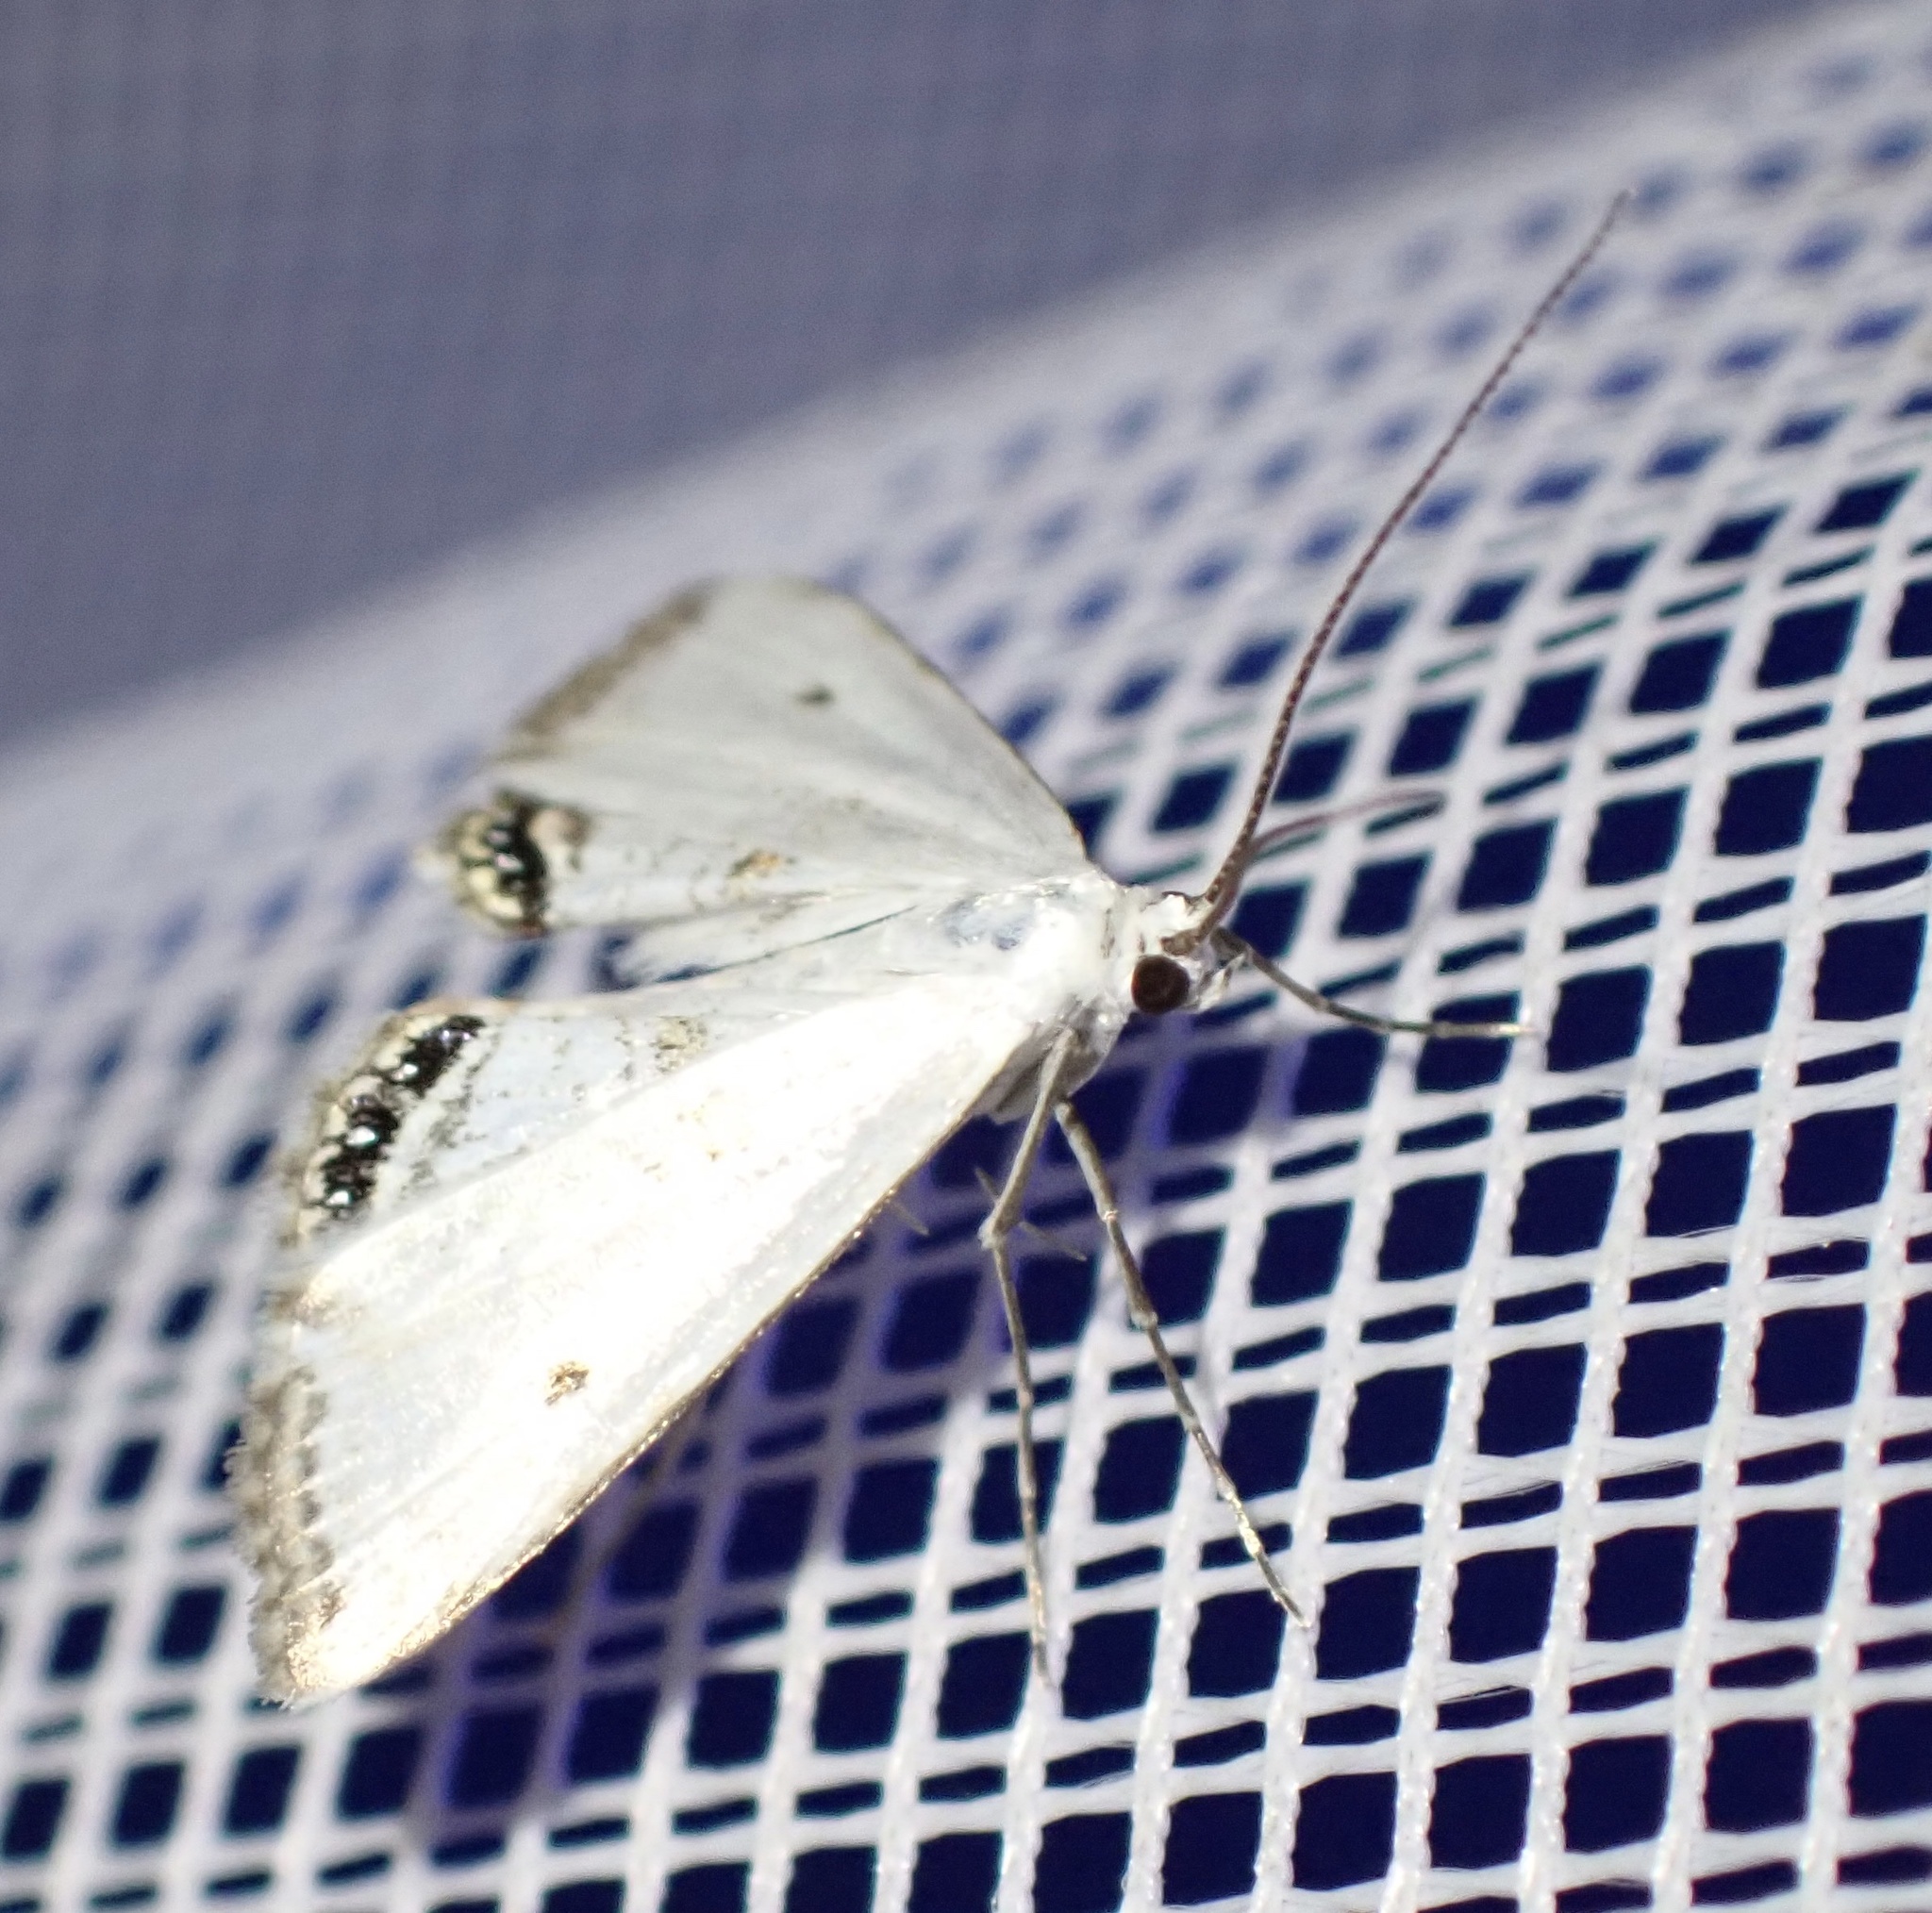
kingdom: Animalia
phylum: Arthropoda
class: Insecta
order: Lepidoptera
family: Crambidae
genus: Cataclysta
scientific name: Cataclysta lemnata
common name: Small china-mark
